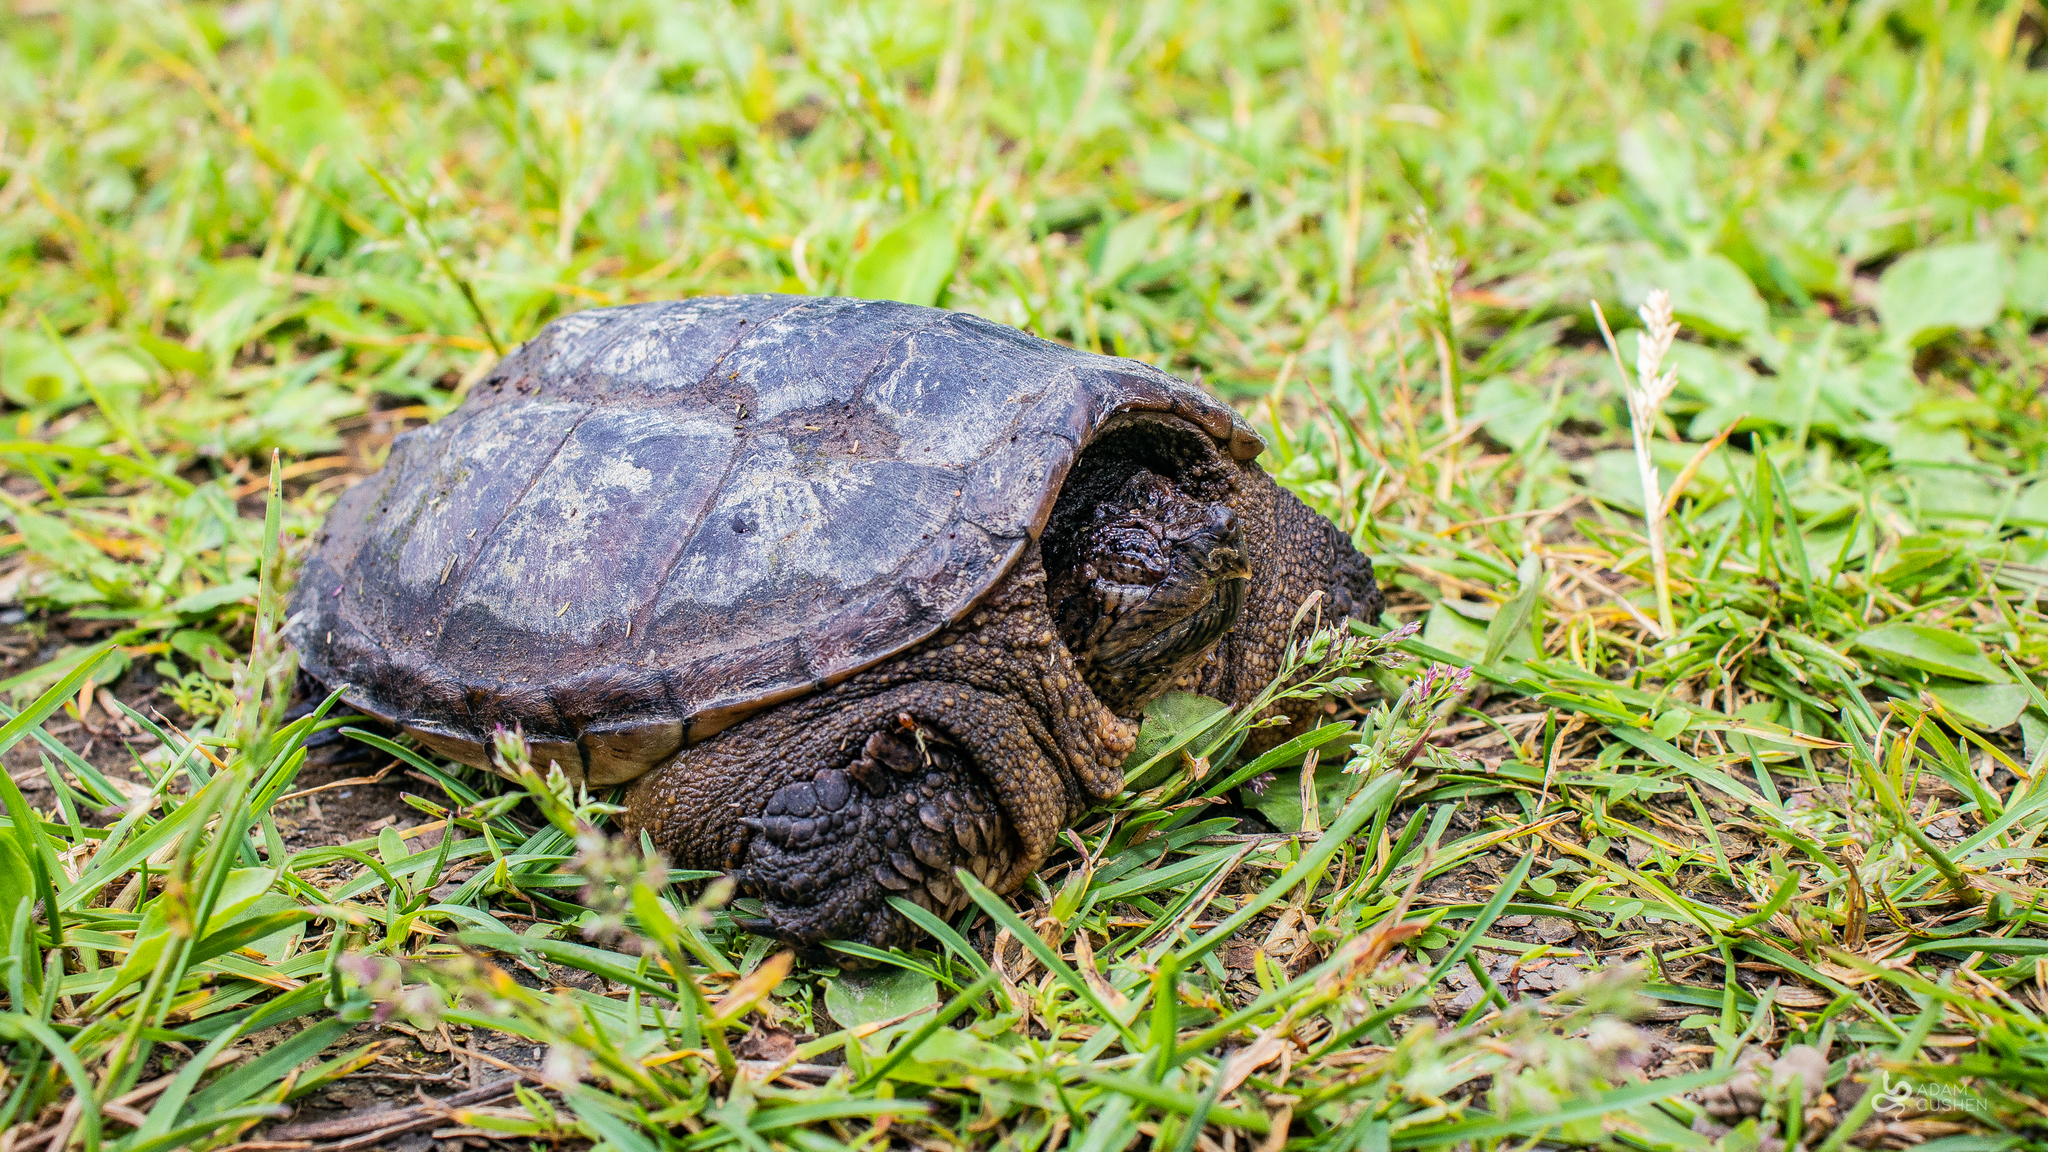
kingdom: Animalia
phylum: Chordata
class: Testudines
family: Chelydridae
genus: Chelydra
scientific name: Chelydra serpentina
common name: Common snapping turtle
